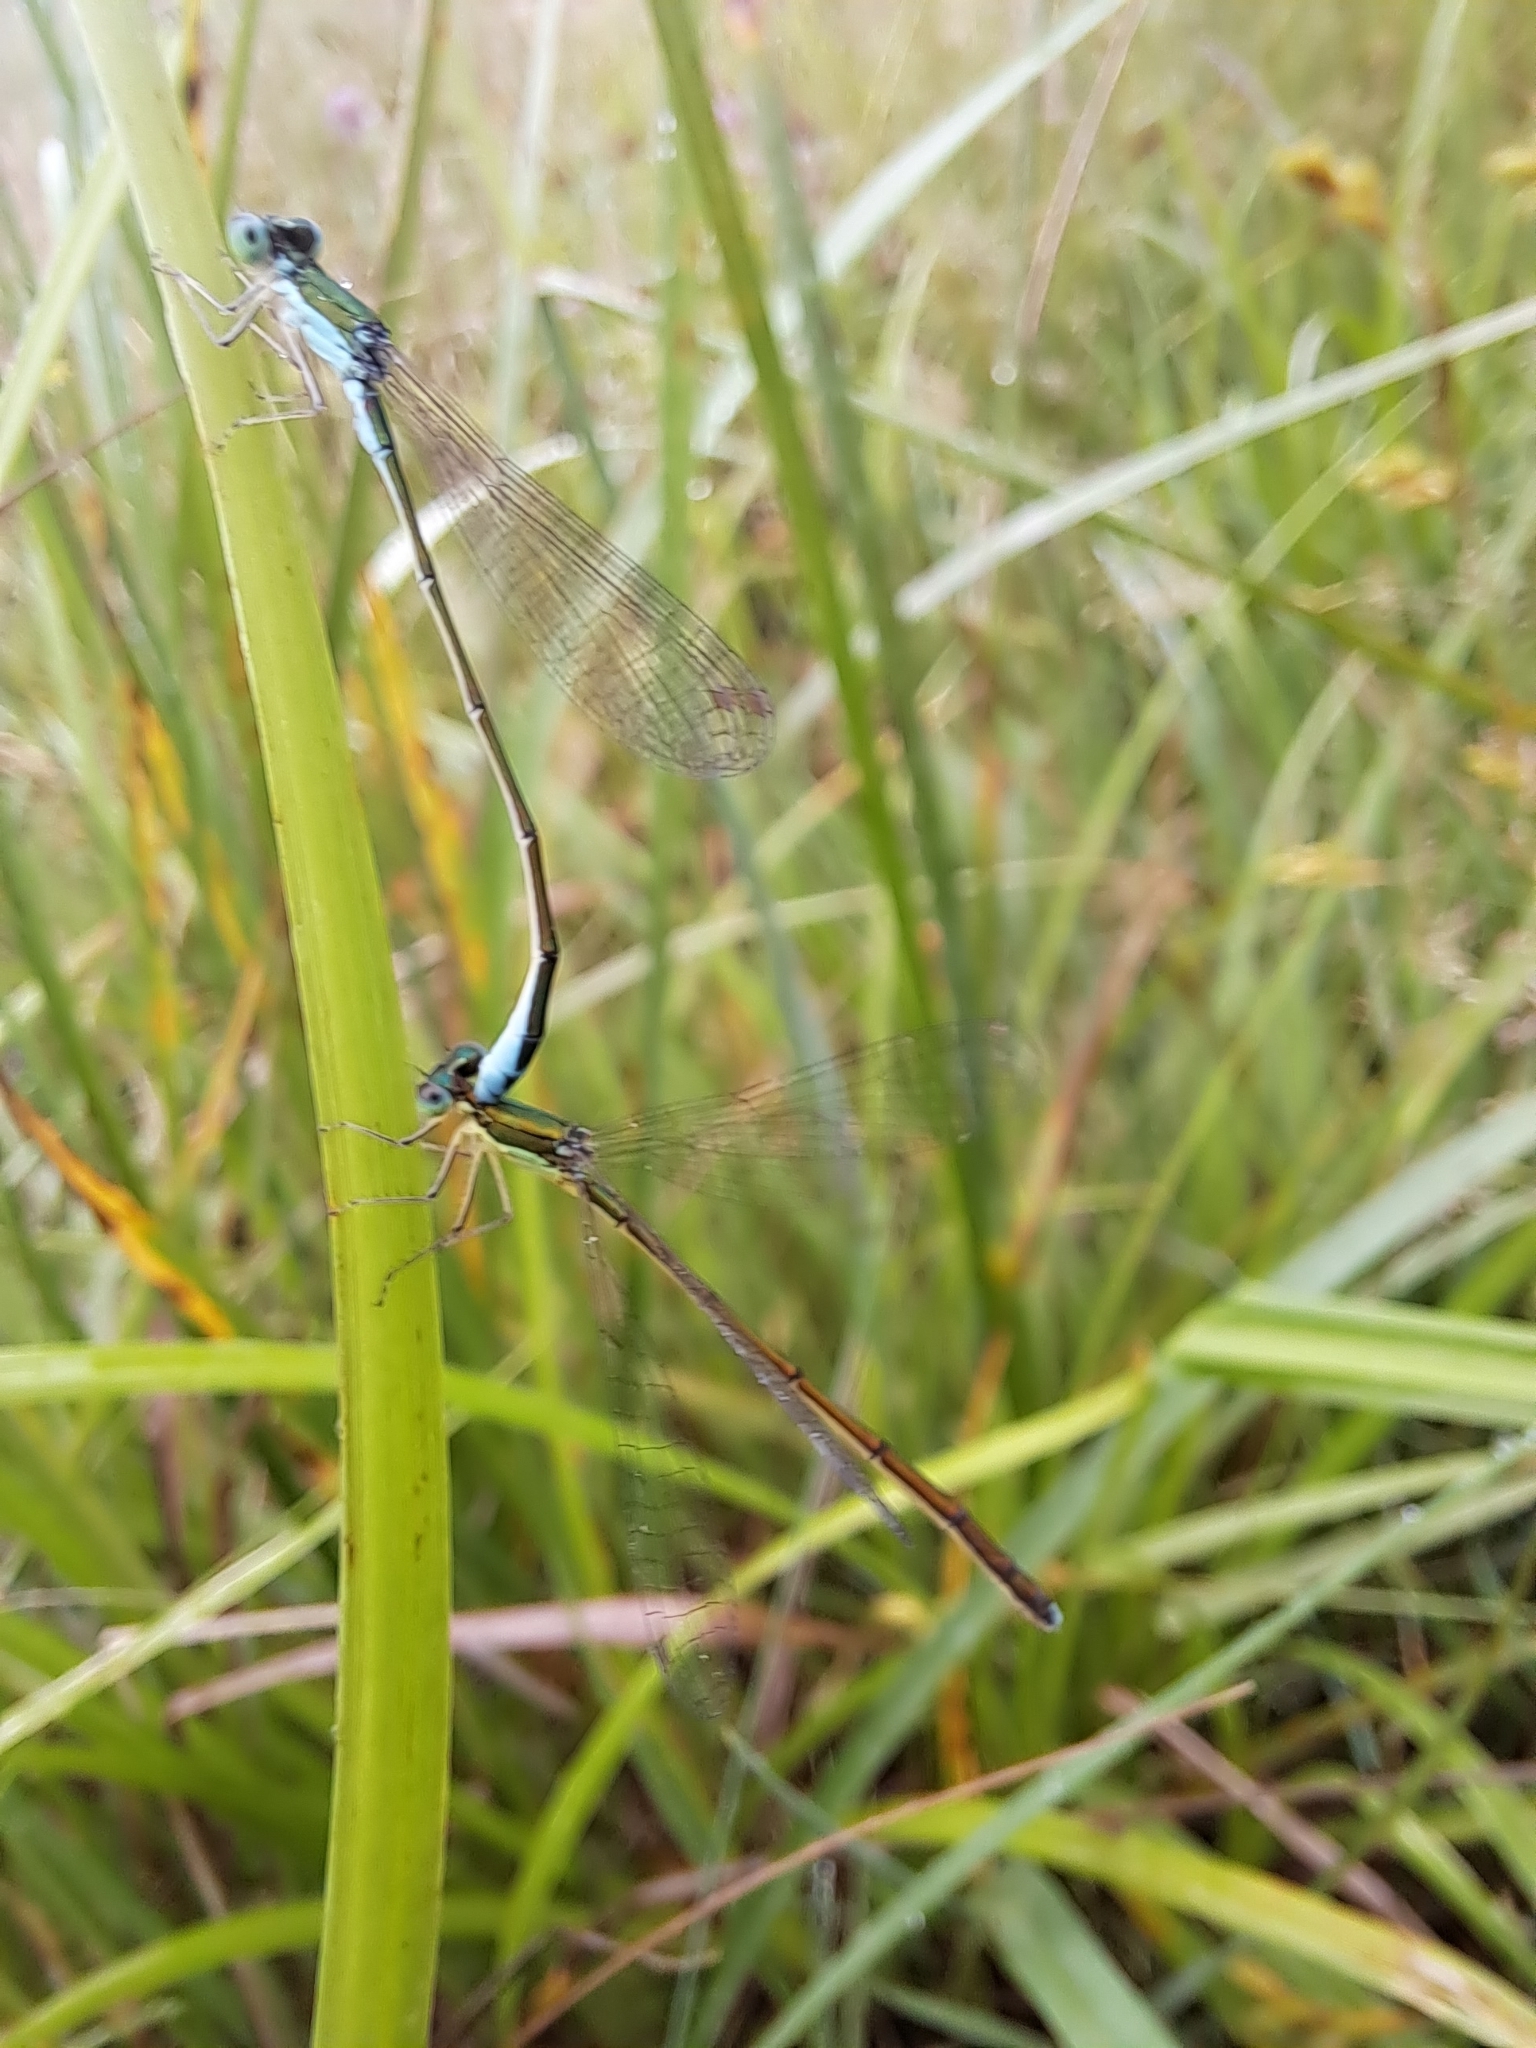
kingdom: Animalia
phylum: Arthropoda
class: Insecta
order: Odonata
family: Coenagrionidae
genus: Nehalennia
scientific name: Nehalennia irene
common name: Sedge sprite
